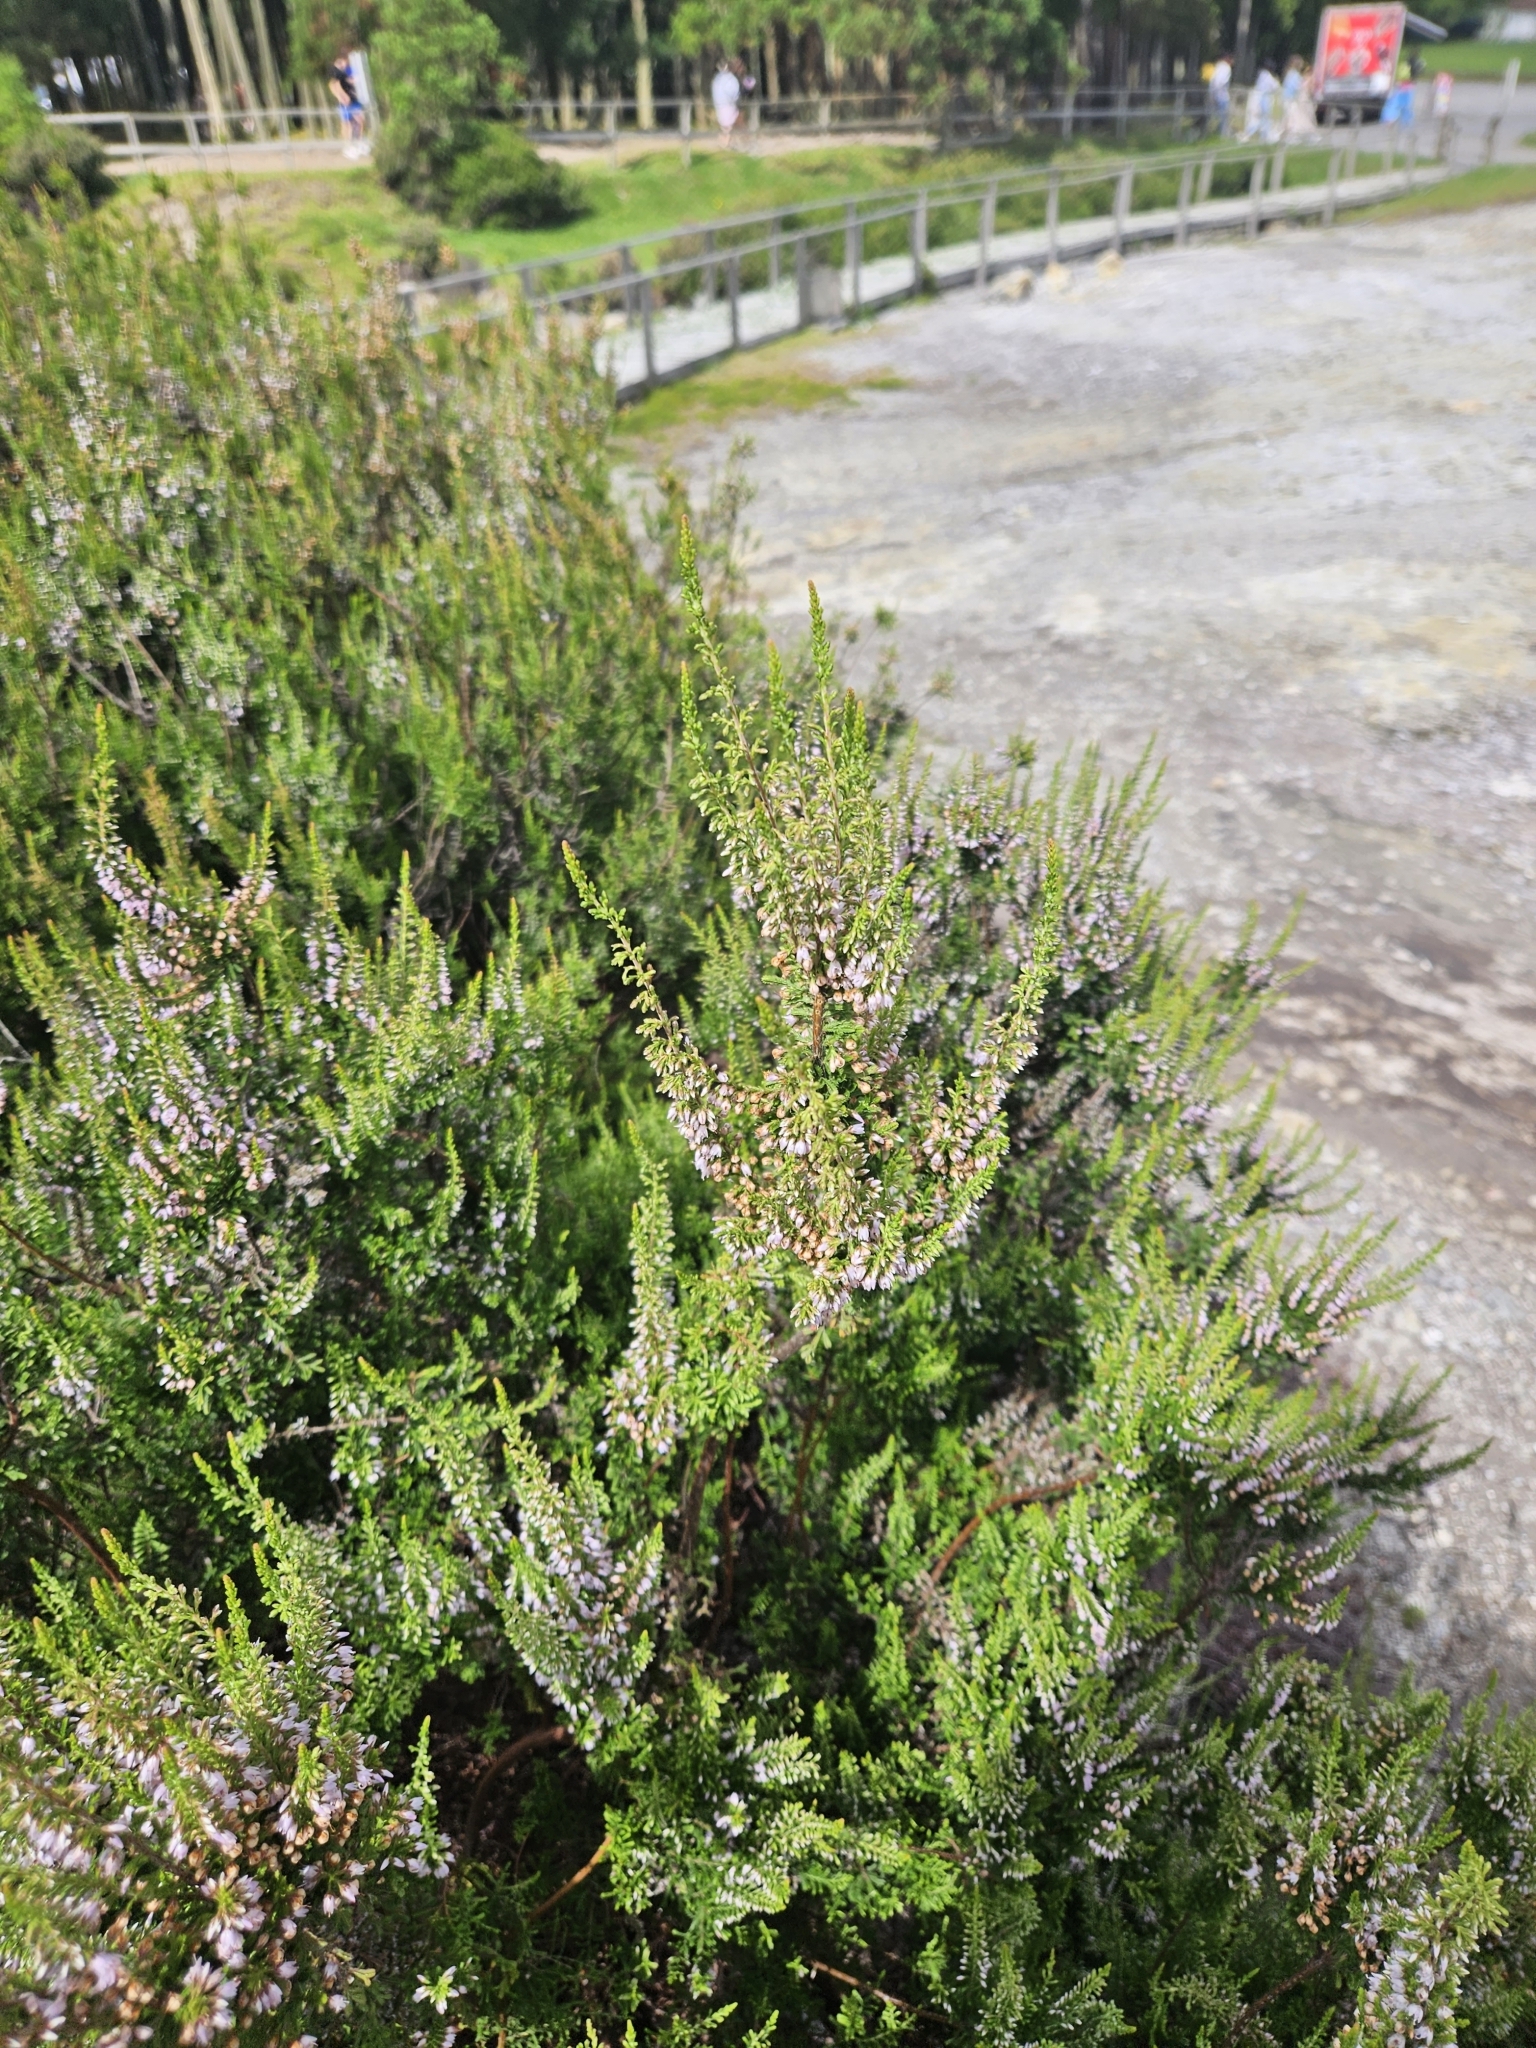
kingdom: Plantae
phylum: Tracheophyta
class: Magnoliopsida
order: Ericales
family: Ericaceae
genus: Calluna
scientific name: Calluna vulgaris
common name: Heather
